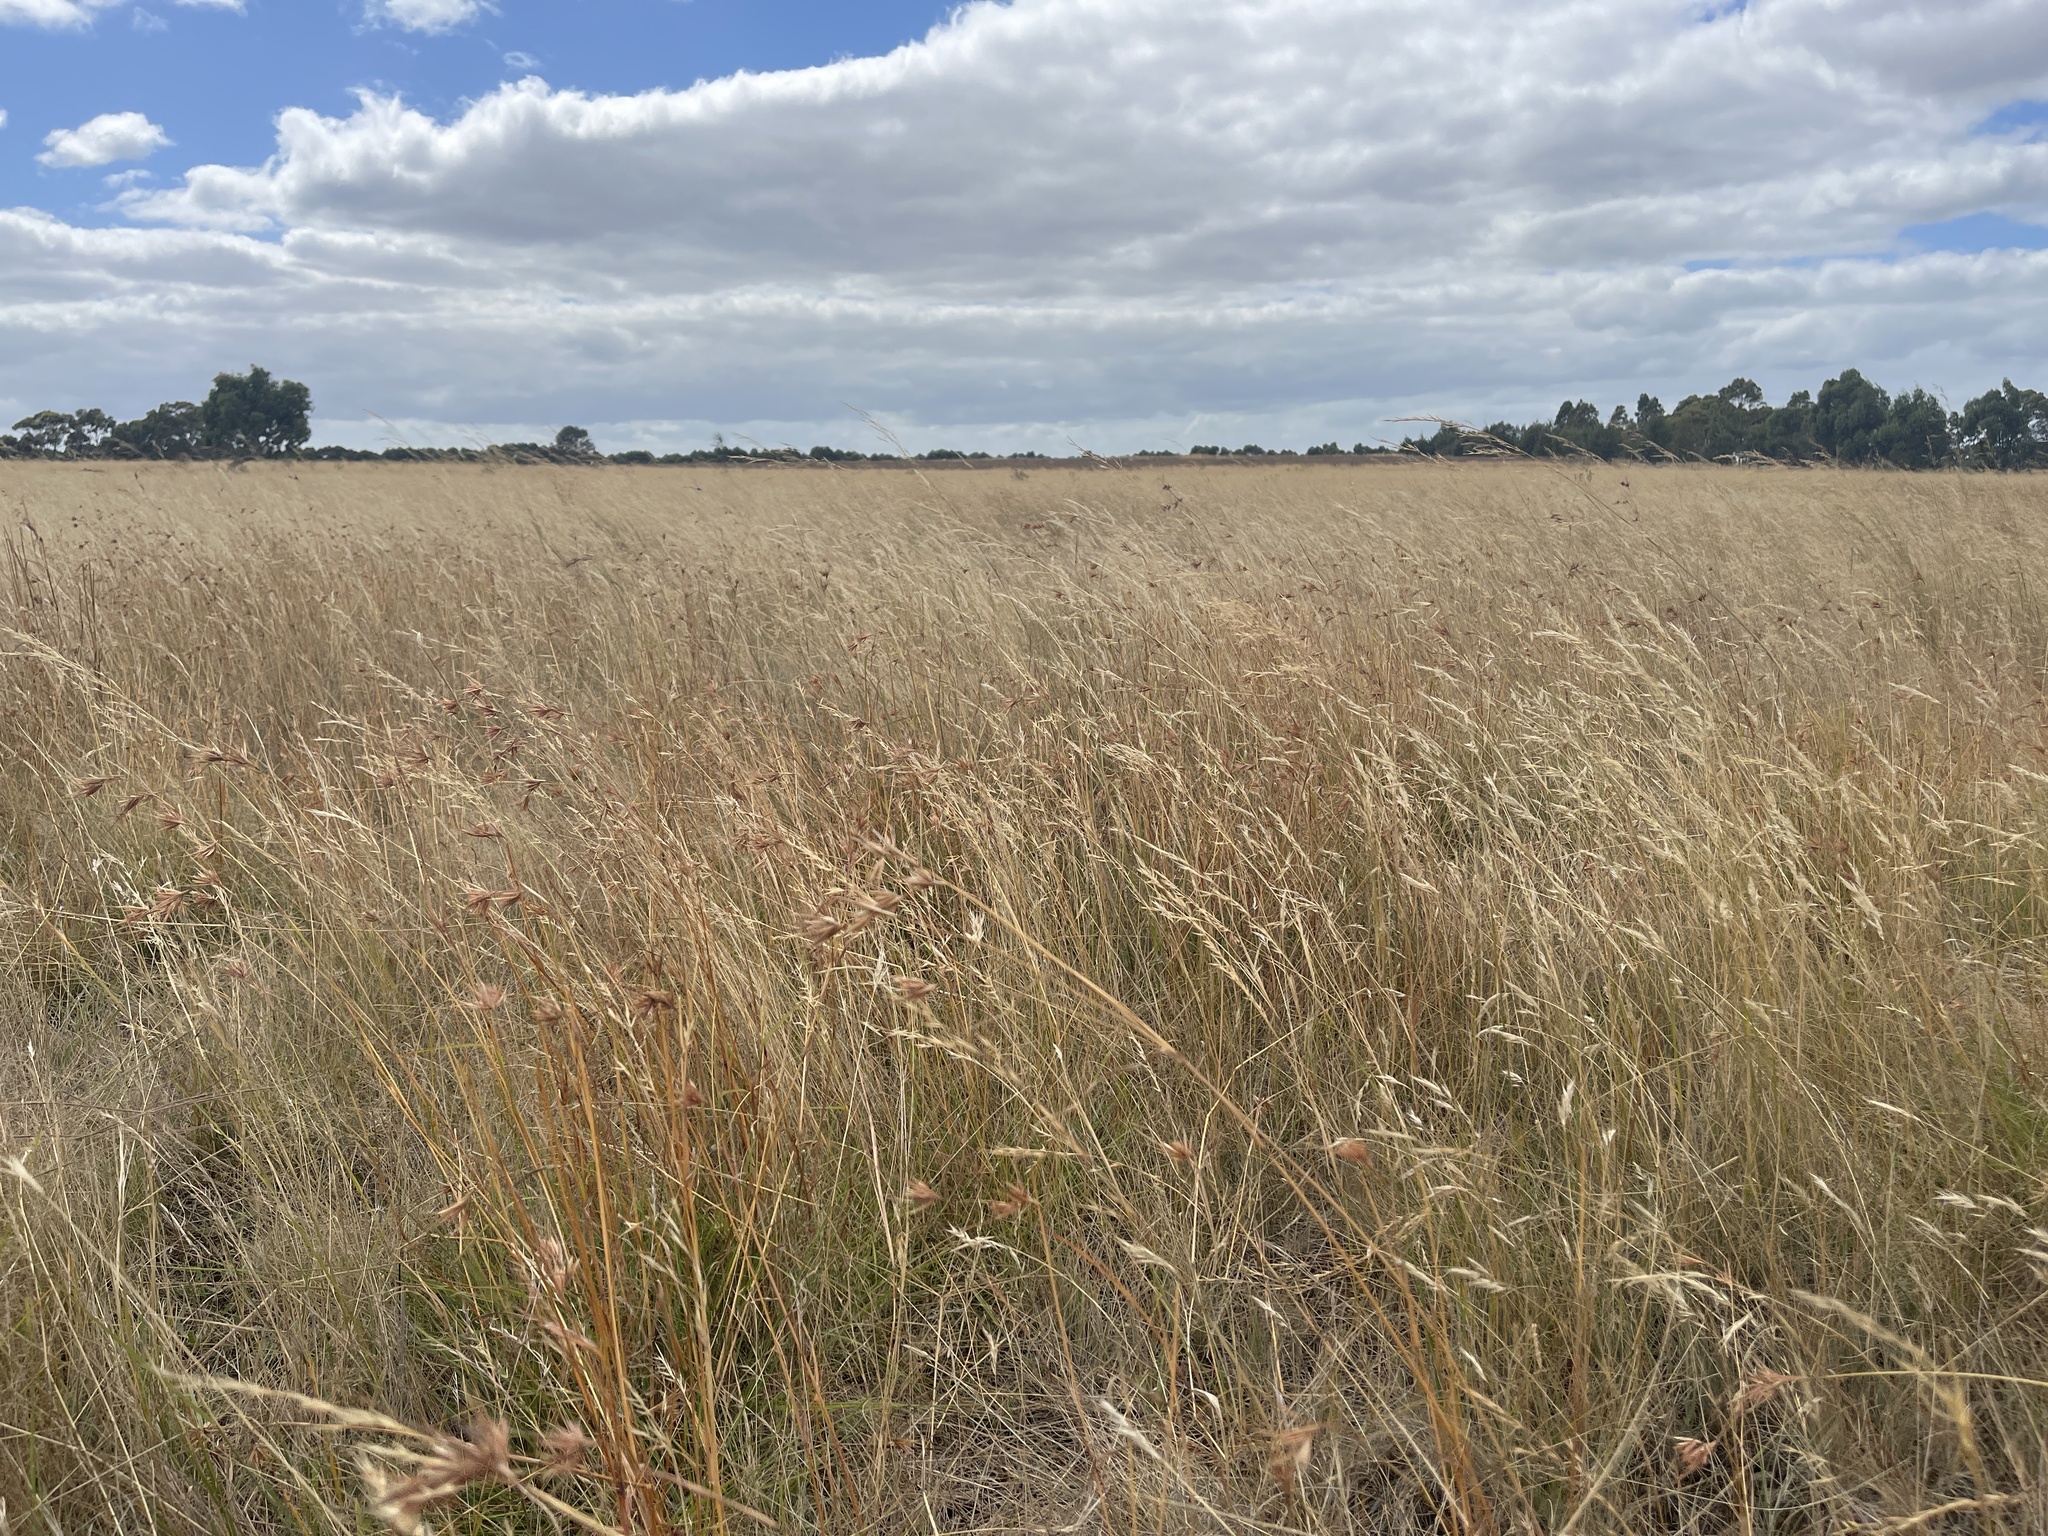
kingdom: Plantae
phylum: Tracheophyta
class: Liliopsida
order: Poales
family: Poaceae
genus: Themeda
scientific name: Themeda triandra
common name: Kangaroo grass
